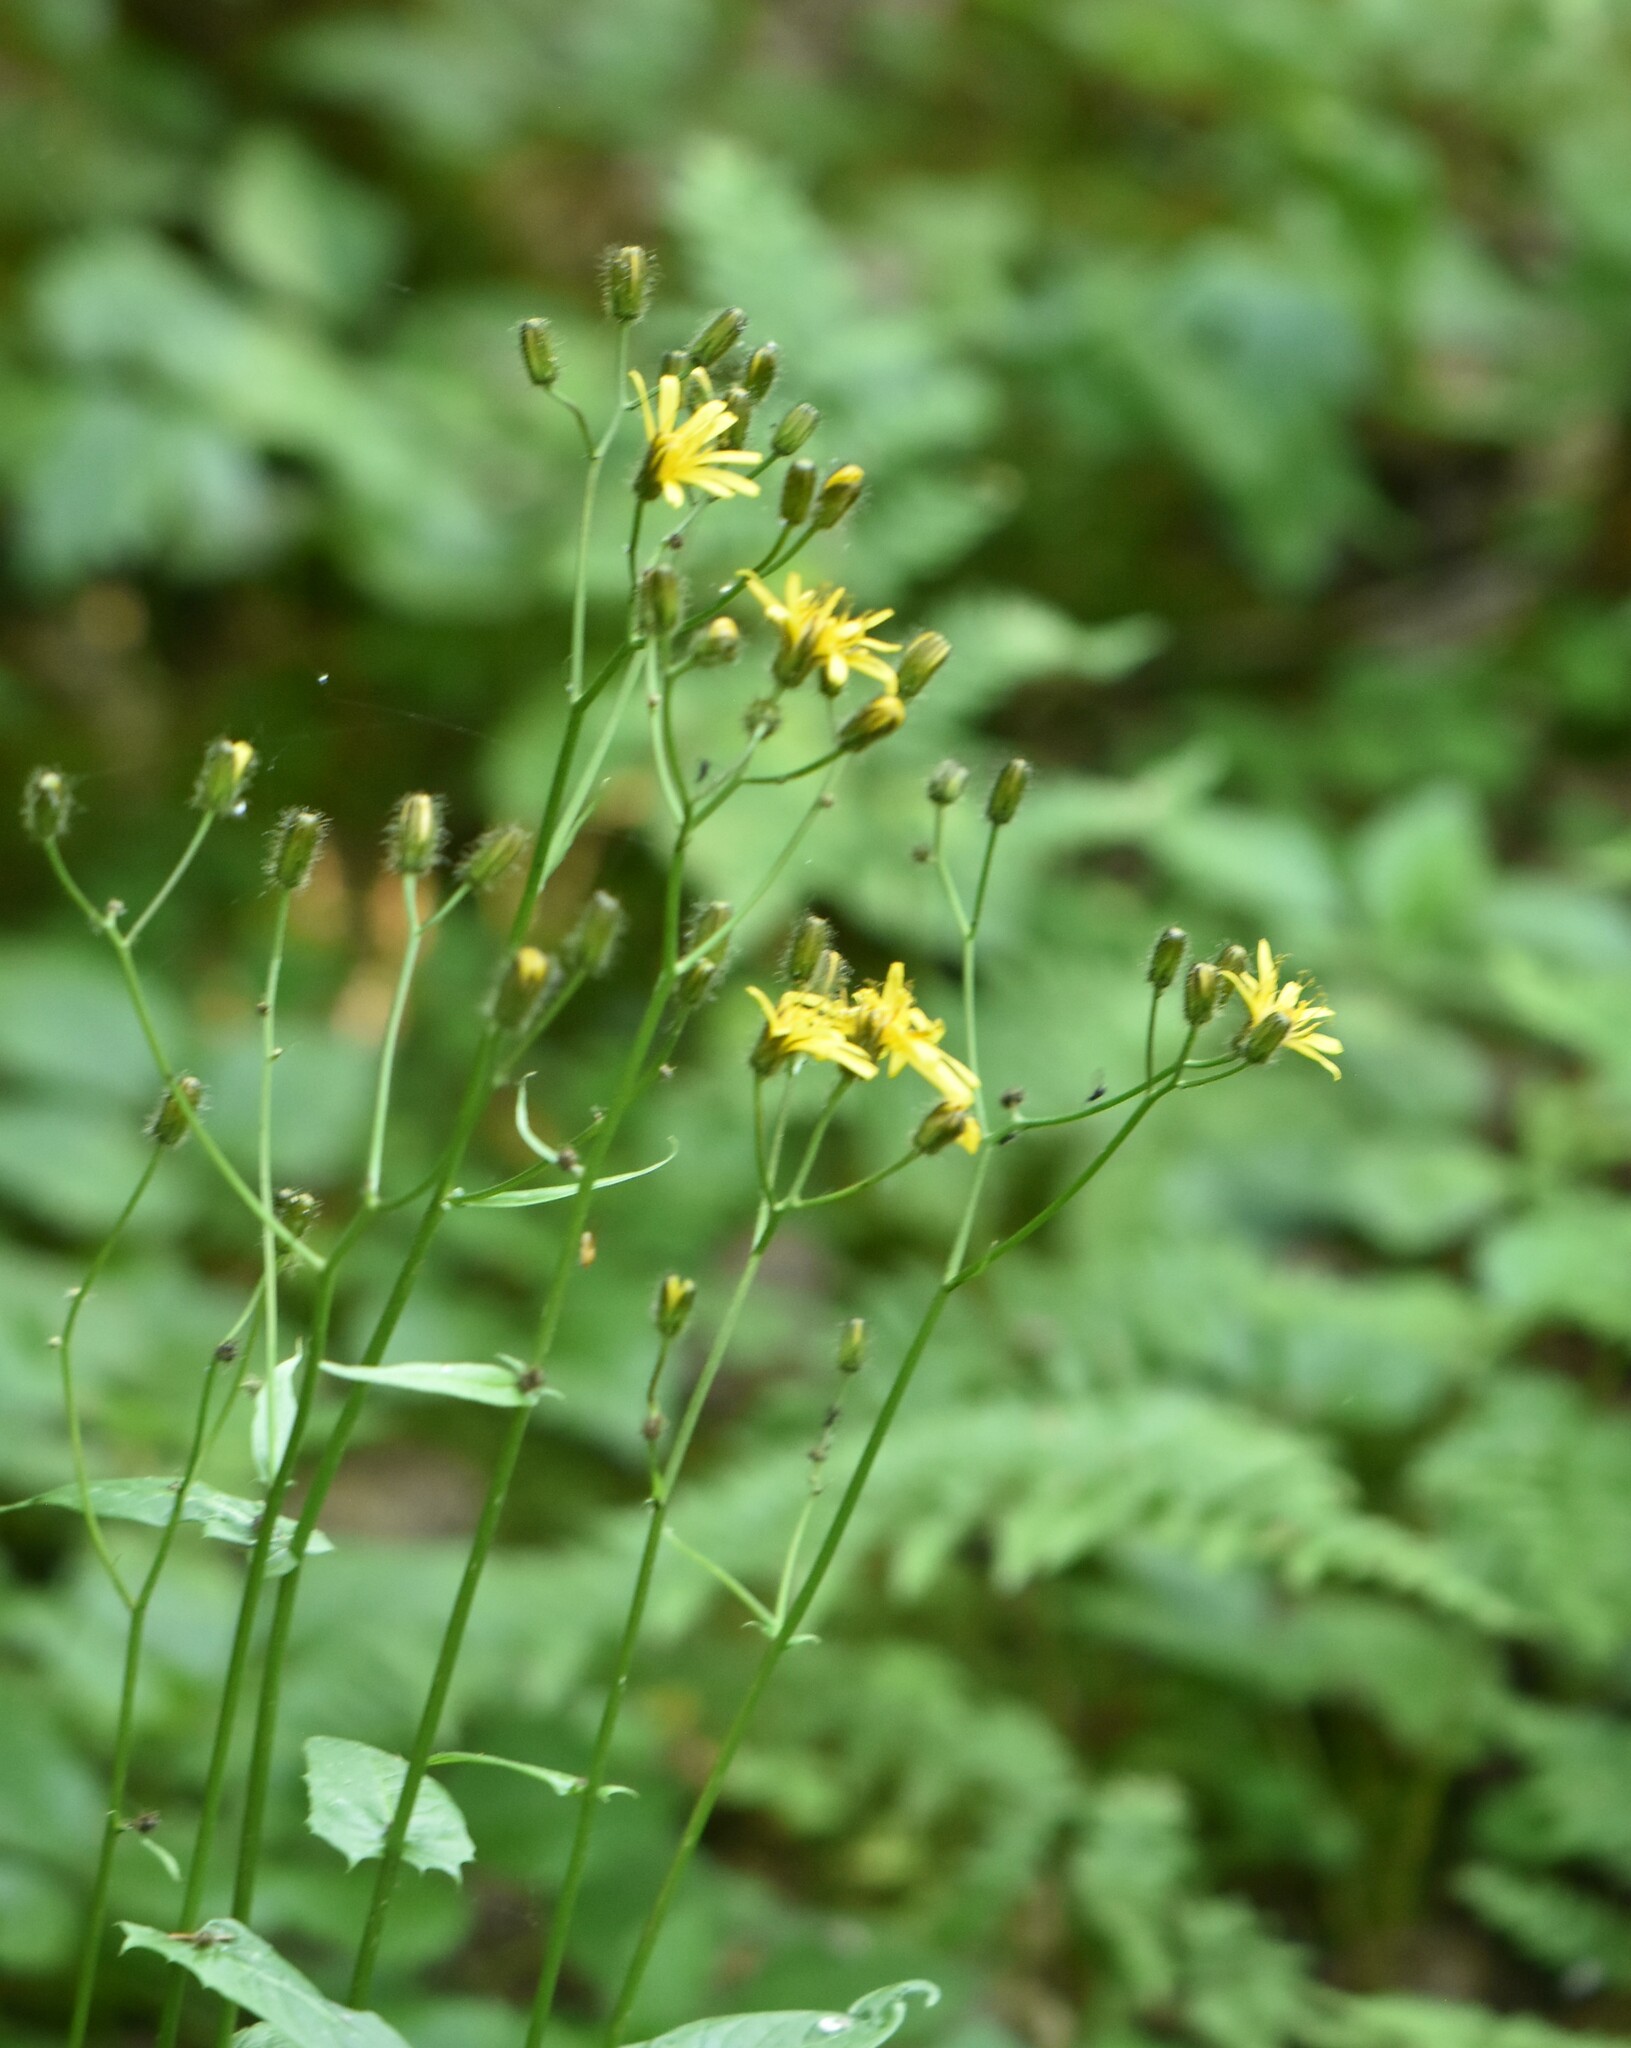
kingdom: Plantae
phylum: Tracheophyta
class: Magnoliopsida
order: Asterales
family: Asteraceae
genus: Crepis
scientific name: Crepis paludosa
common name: Marsh hawk's-beard
